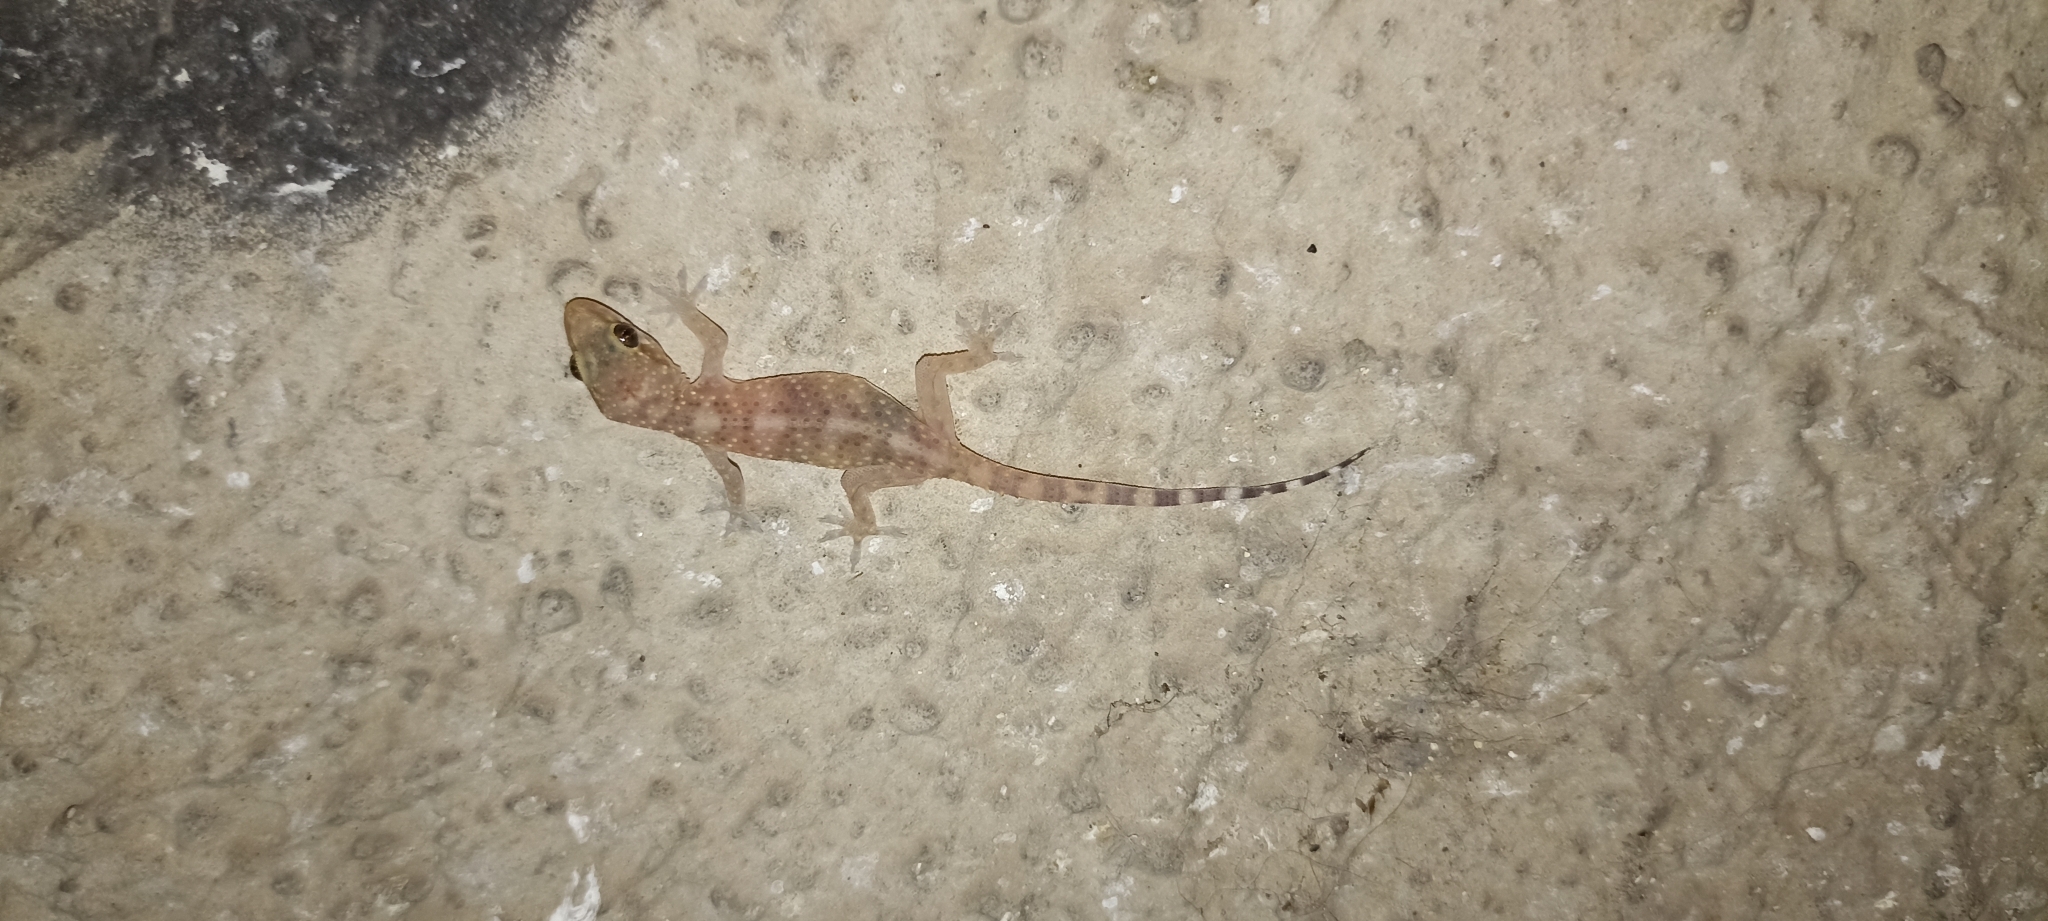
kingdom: Animalia
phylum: Chordata
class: Squamata
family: Gekkonidae
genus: Hemidactylus
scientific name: Hemidactylus turcicus
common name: Turkish gecko
